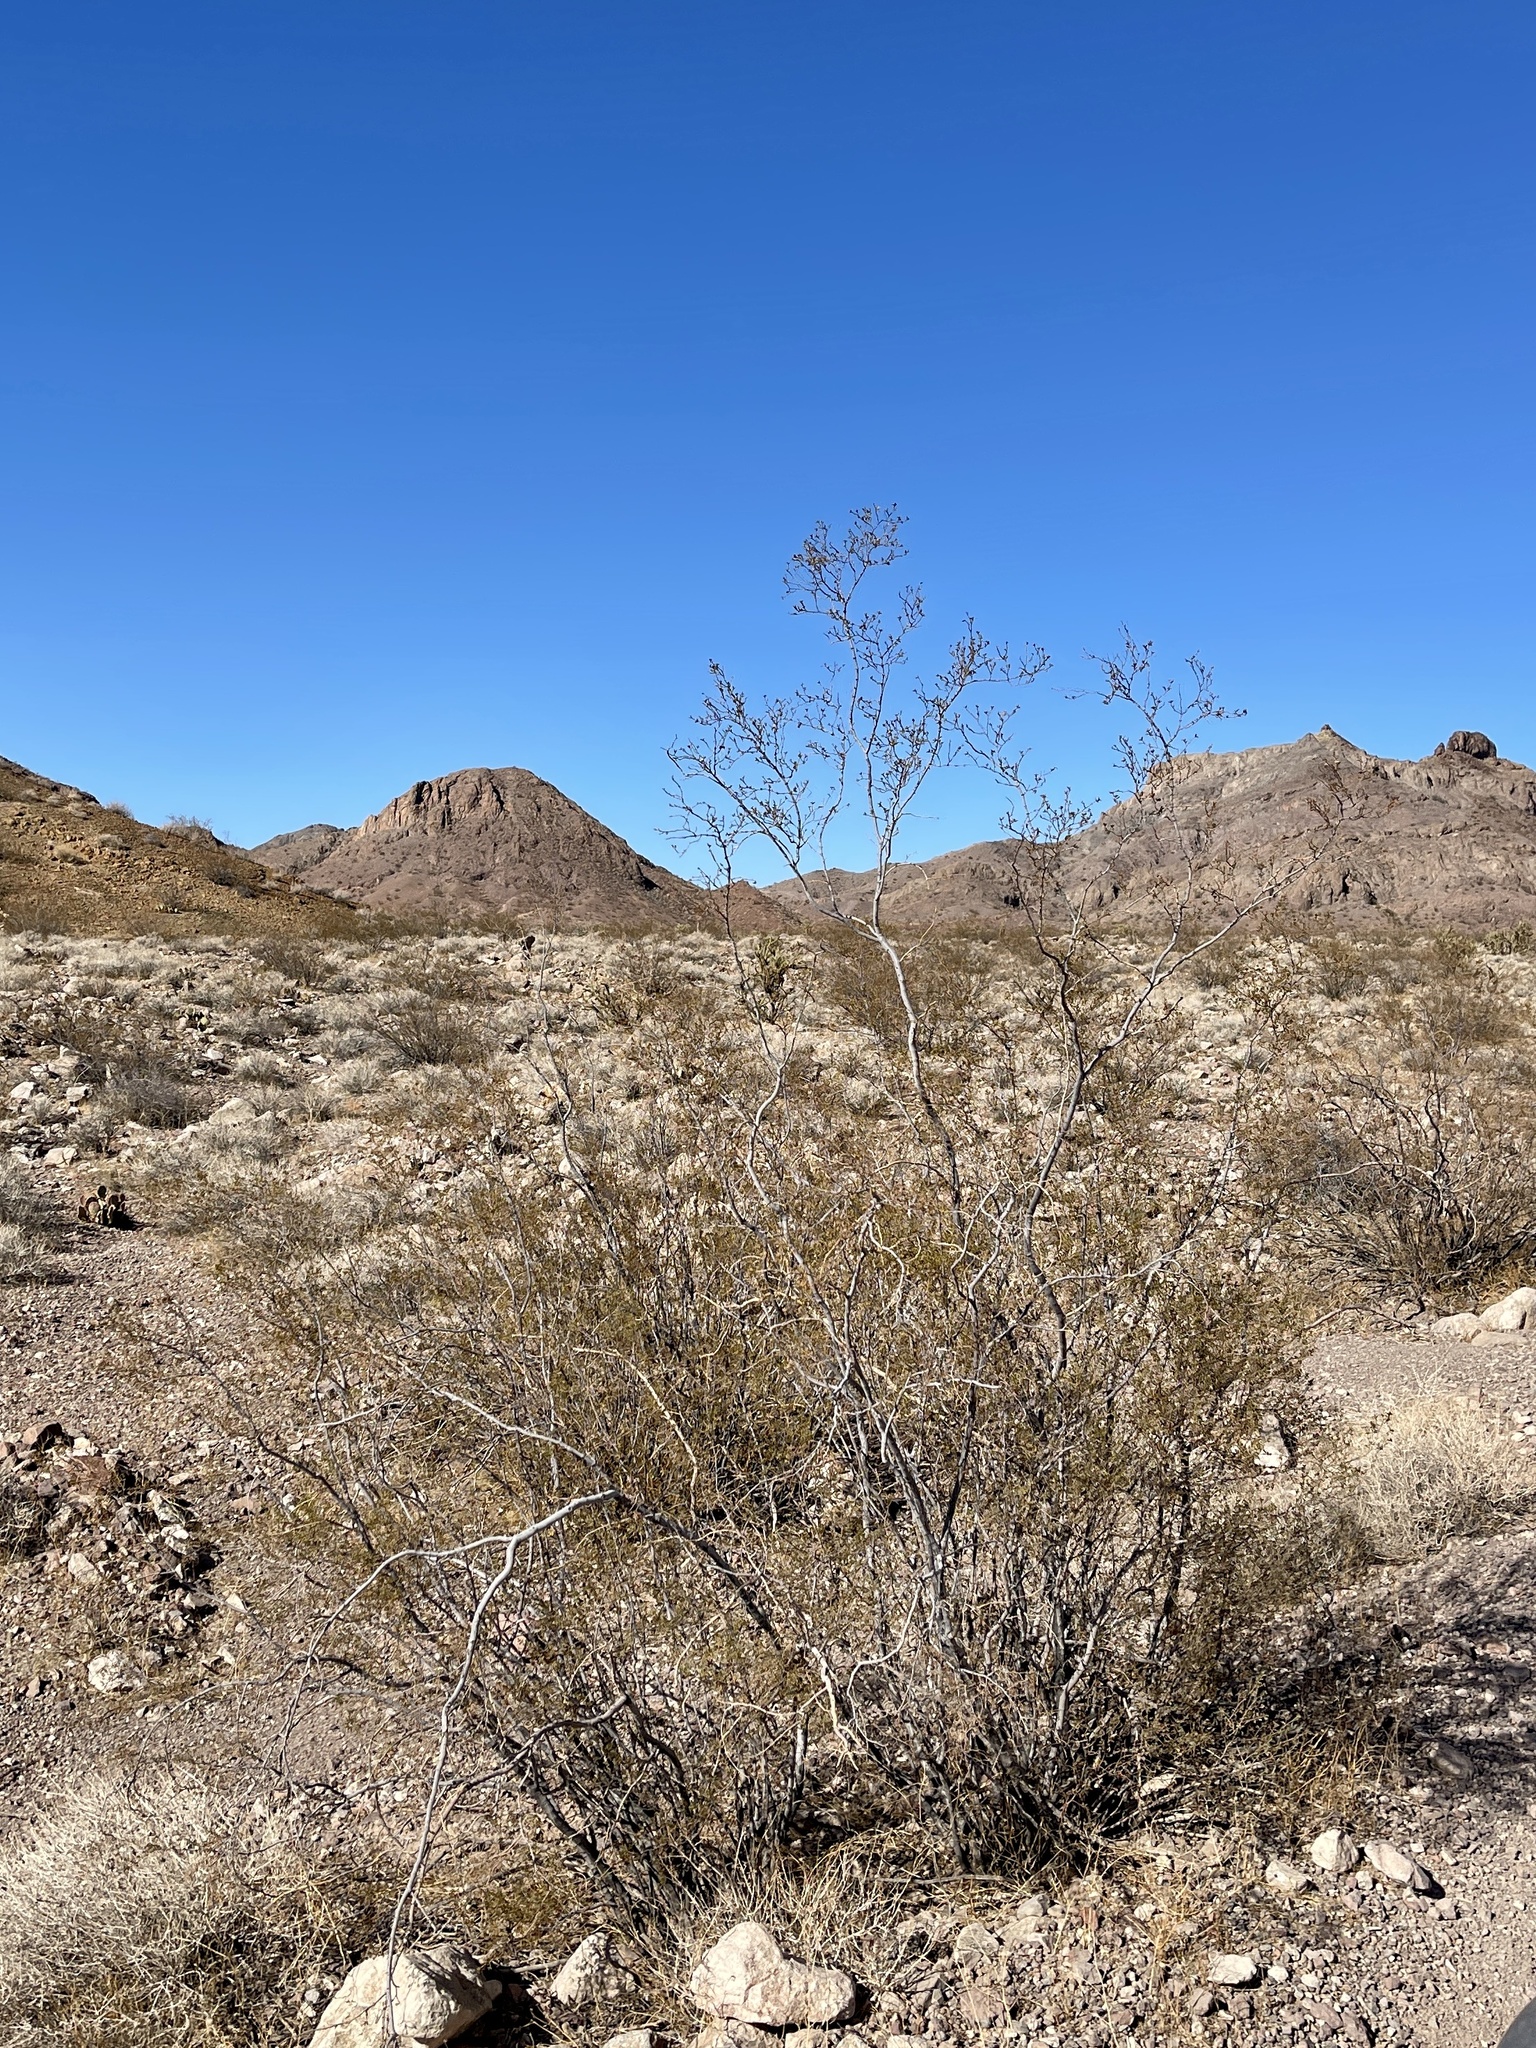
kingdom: Plantae
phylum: Tracheophyta
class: Magnoliopsida
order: Zygophyllales
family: Zygophyllaceae
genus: Larrea
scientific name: Larrea tridentata
